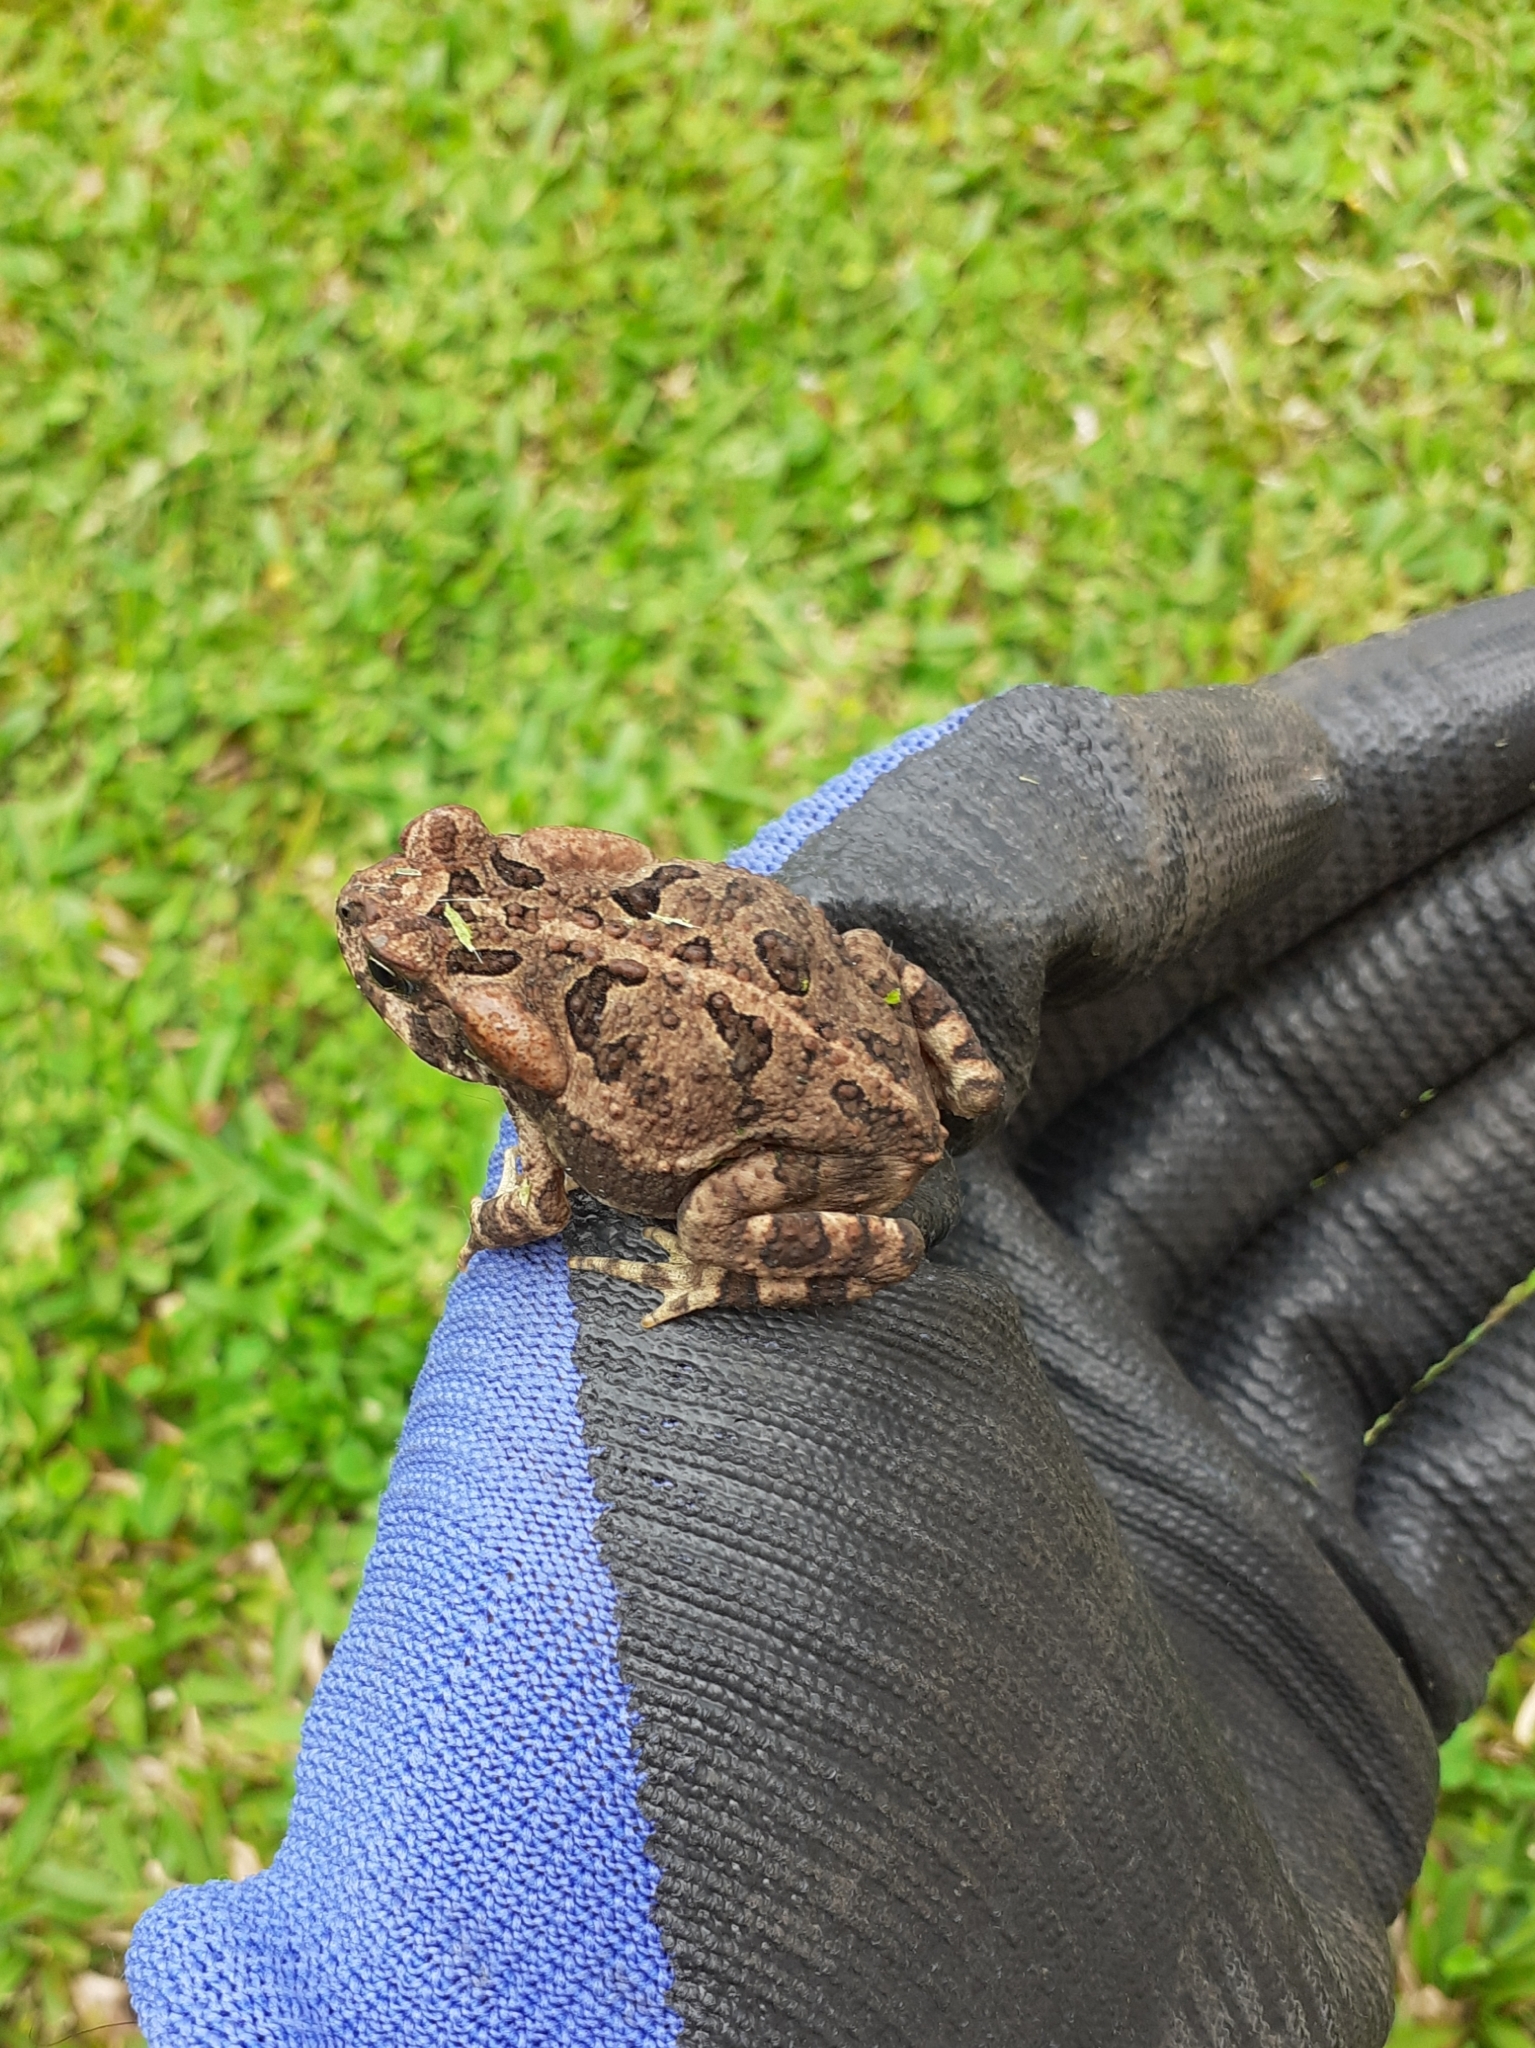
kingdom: Animalia
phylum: Chordata
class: Amphibia
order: Anura
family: Bufonidae
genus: Rhinella
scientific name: Rhinella ornata
